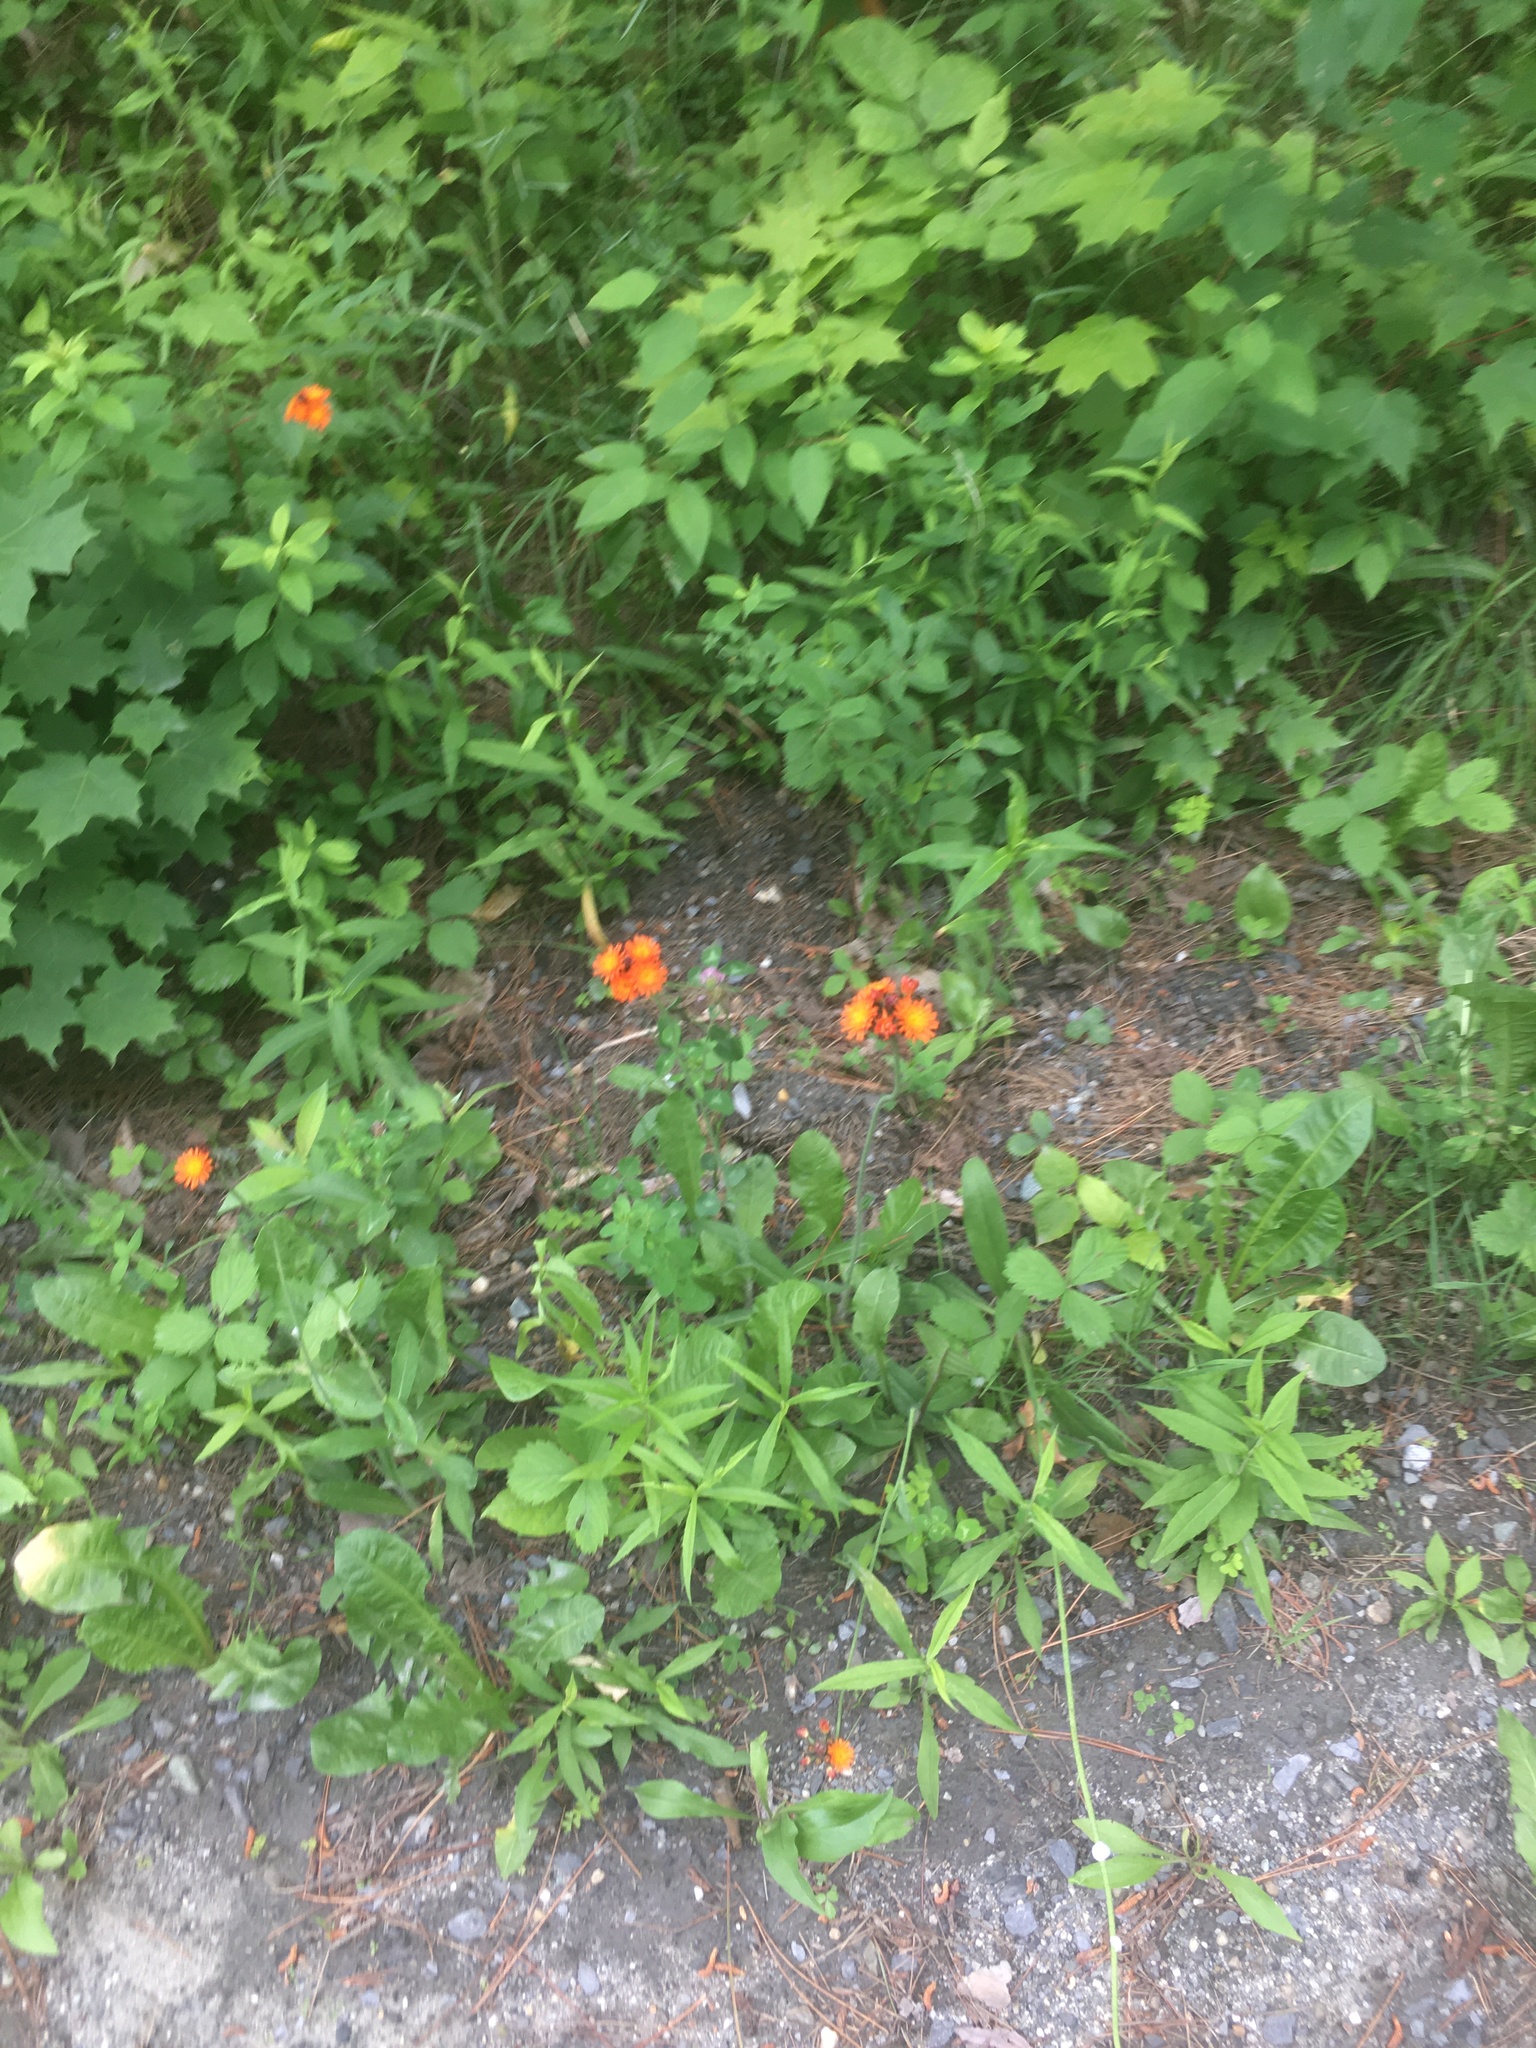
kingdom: Plantae
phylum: Tracheophyta
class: Magnoliopsida
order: Asterales
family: Asteraceae
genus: Pilosella
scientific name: Pilosella aurantiaca
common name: Fox-and-cubs
